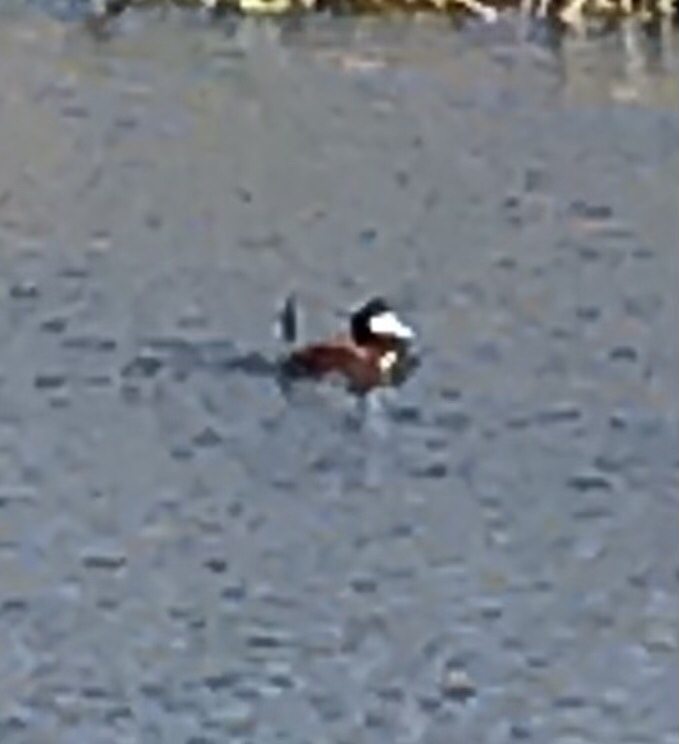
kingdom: Animalia
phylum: Chordata
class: Aves
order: Anseriformes
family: Anatidae
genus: Oxyura
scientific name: Oxyura jamaicensis
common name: Ruddy duck
